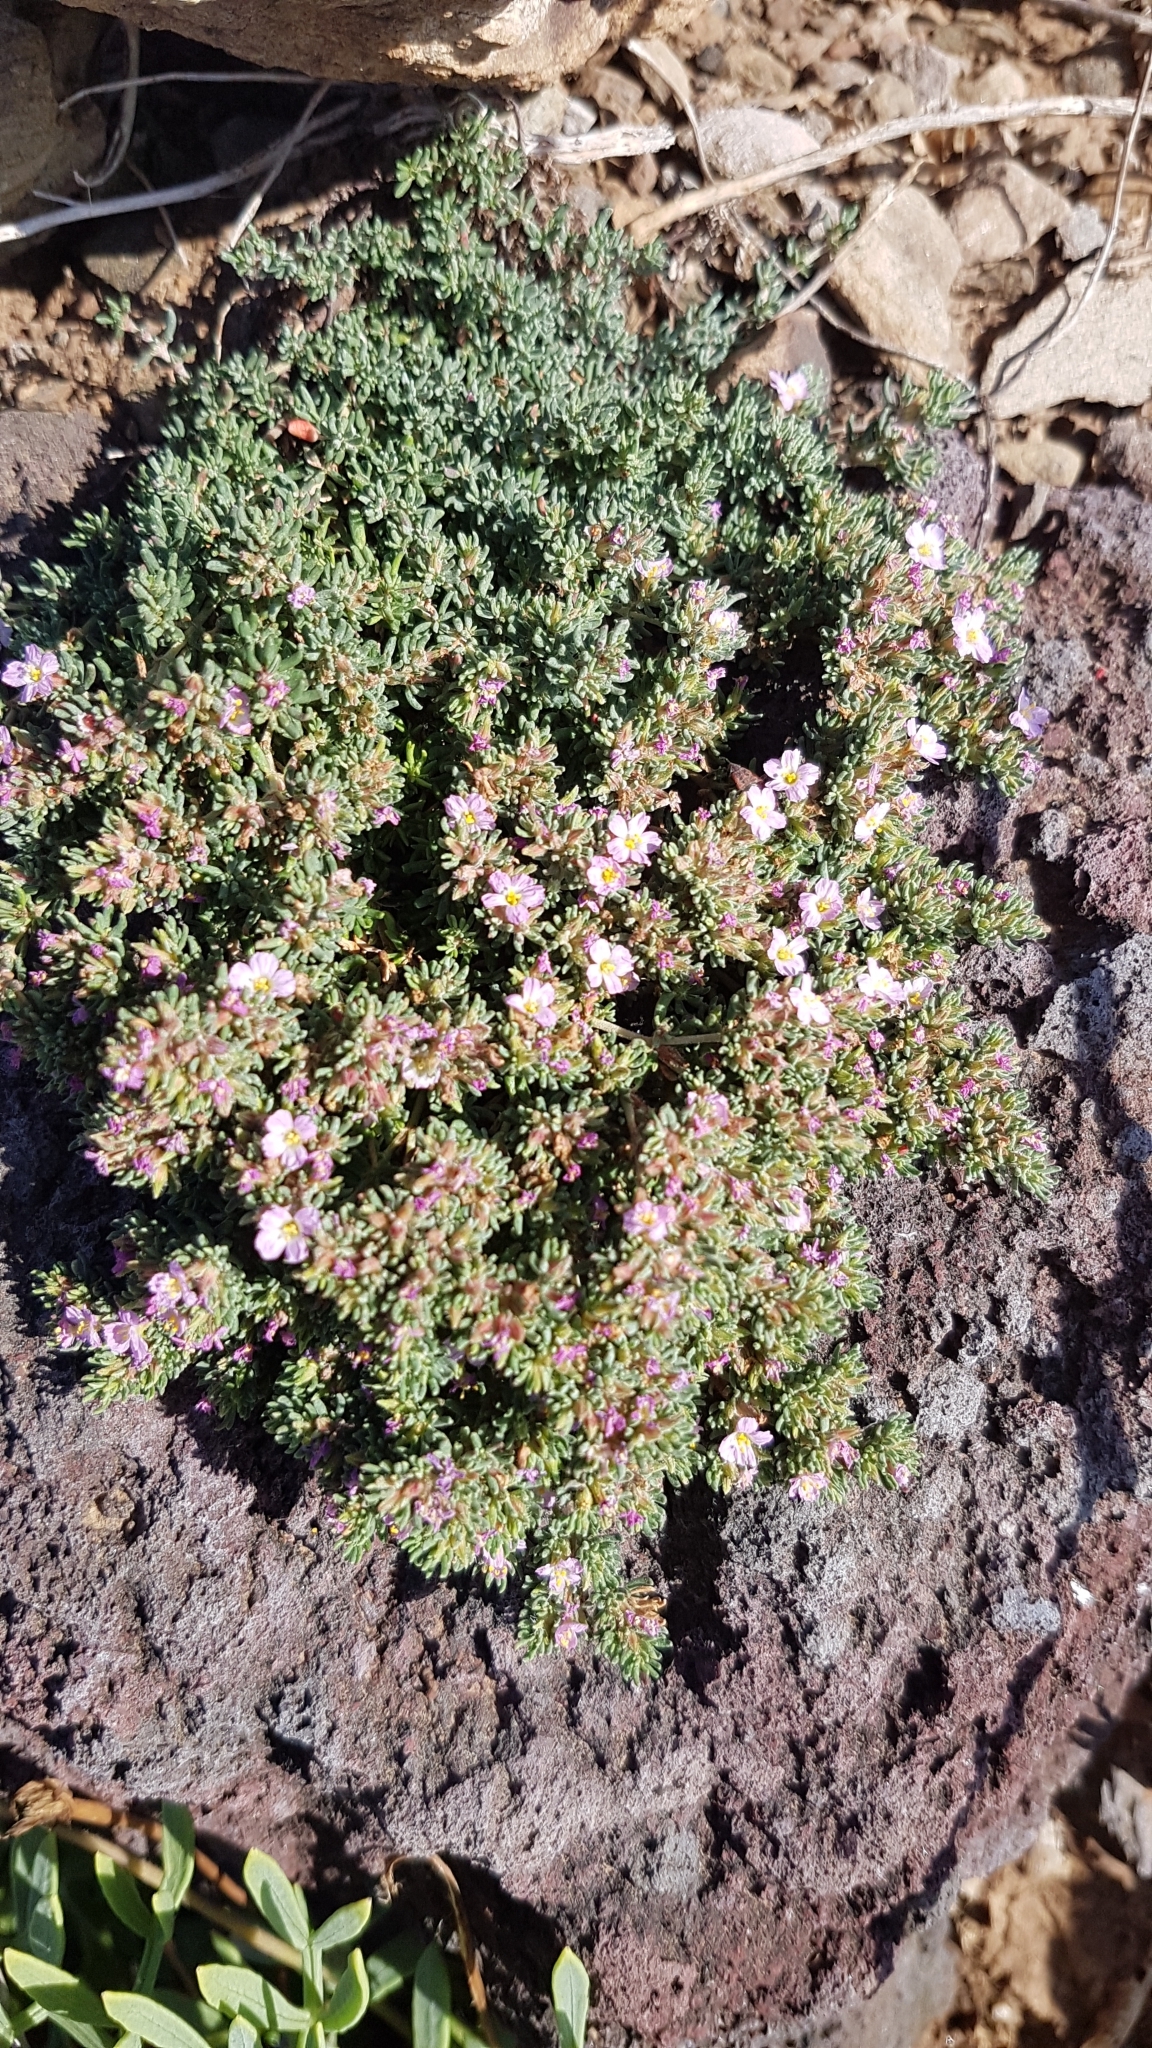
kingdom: Plantae
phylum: Tracheophyta
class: Magnoliopsida
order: Caryophyllales
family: Frankeniaceae
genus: Frankenia
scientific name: Frankenia hirsuta
